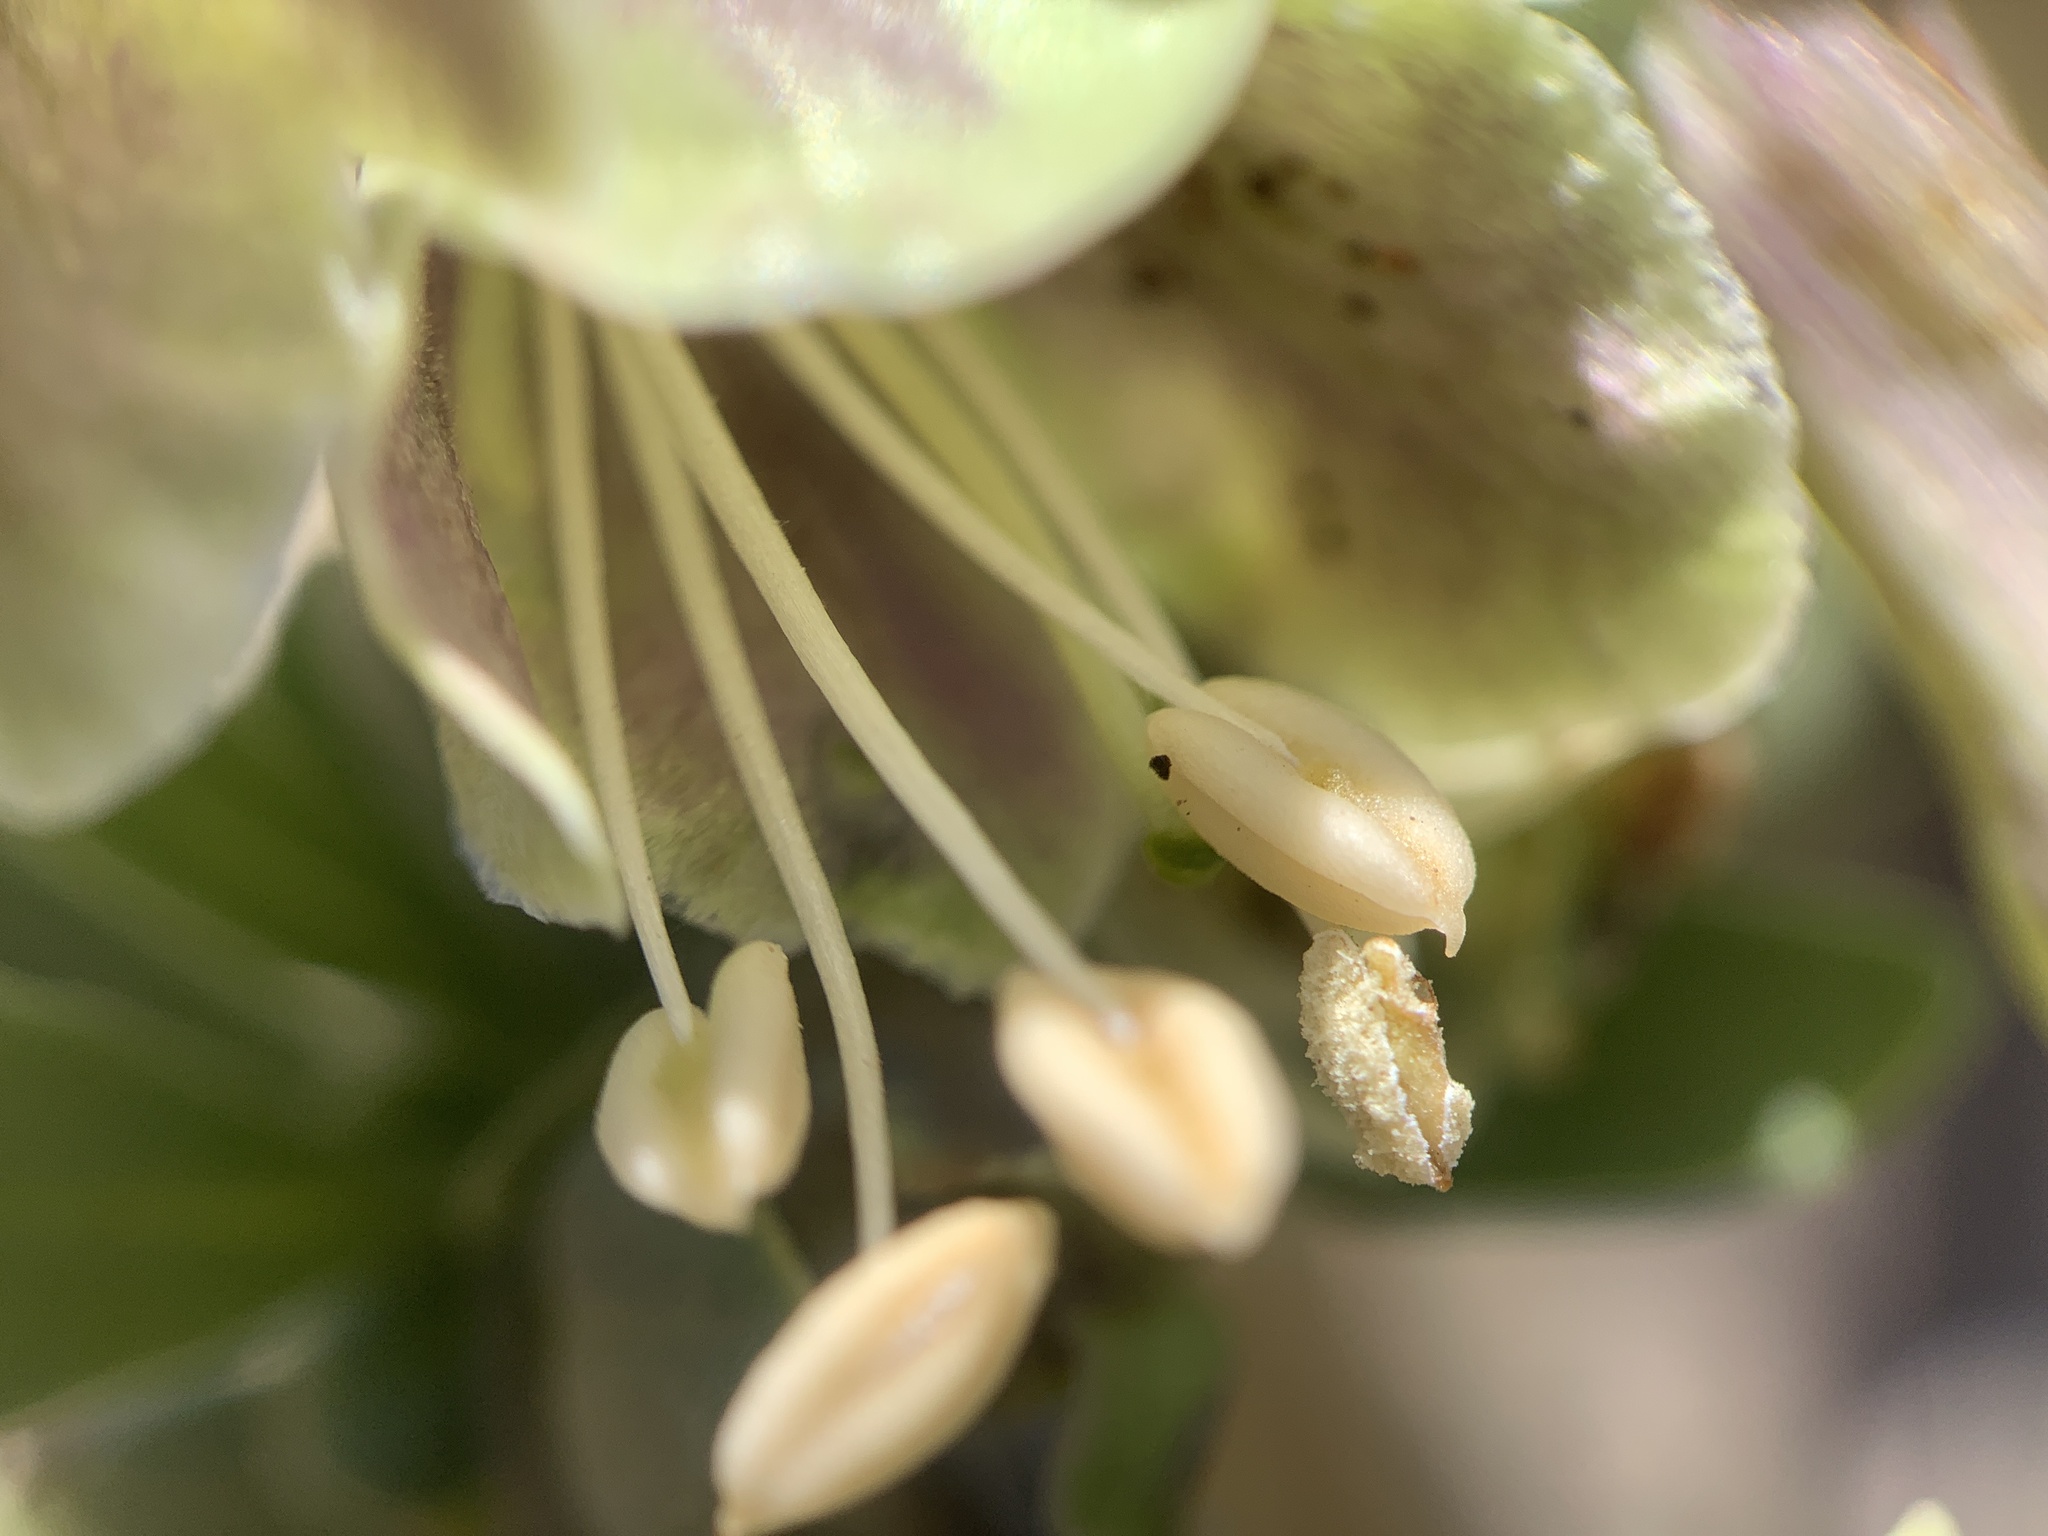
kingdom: Plantae
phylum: Tracheophyta
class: Magnoliopsida
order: Solanales
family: Solanaceae
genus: Lycium
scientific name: Lycium pallidum
